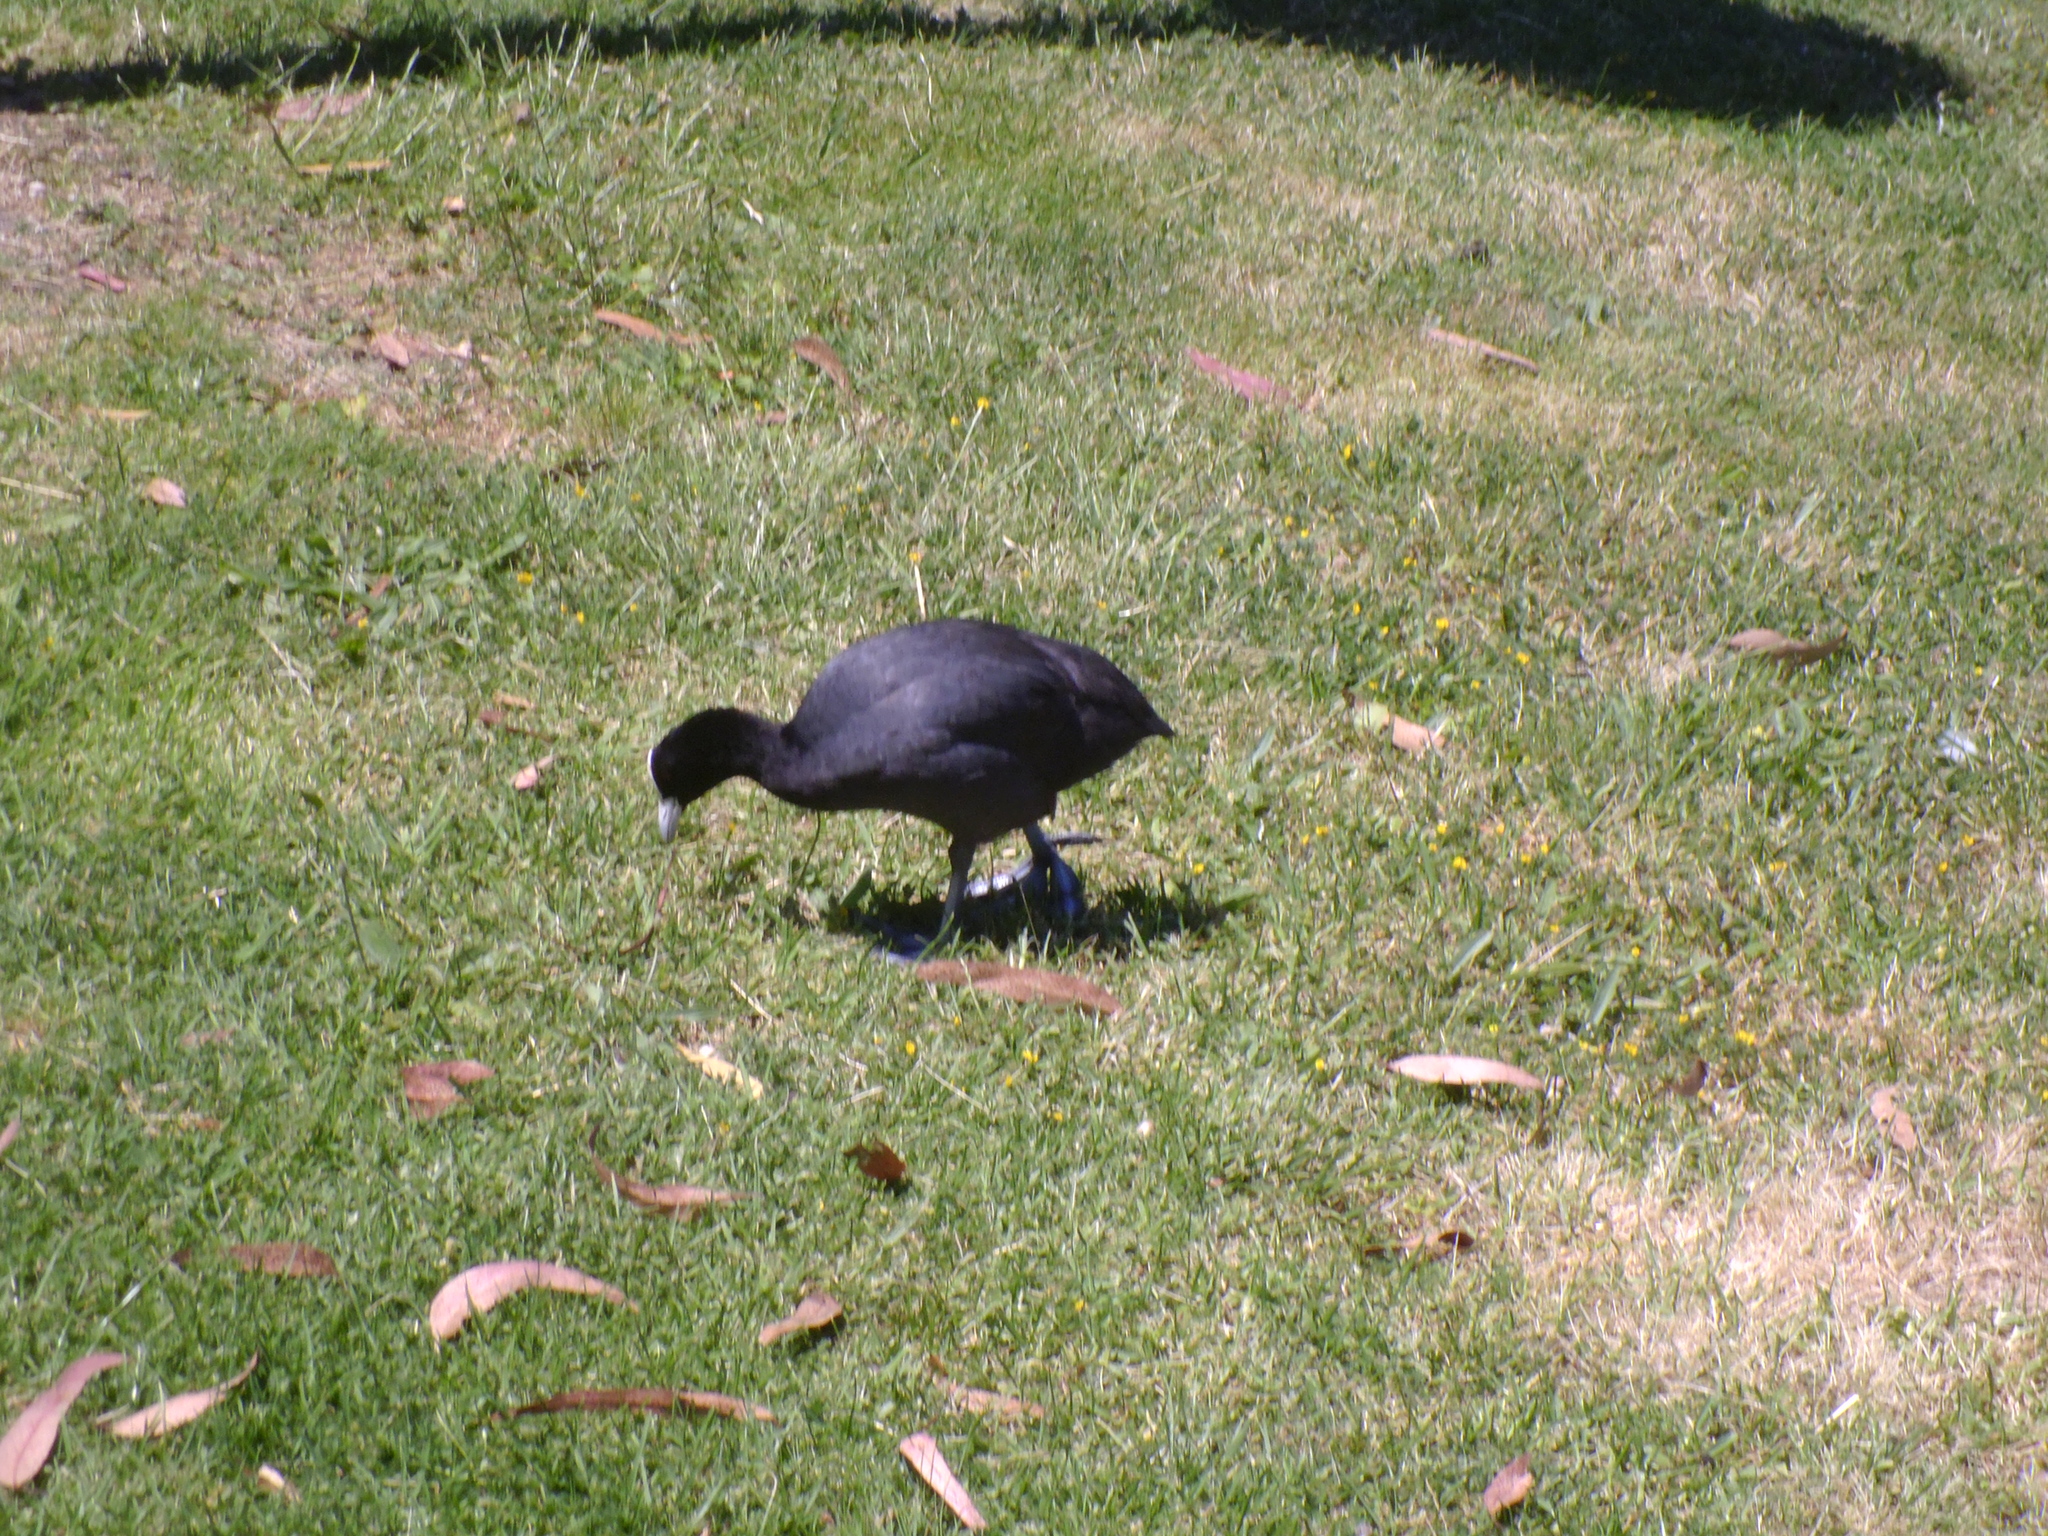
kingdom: Animalia
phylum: Chordata
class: Aves
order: Gruiformes
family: Rallidae
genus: Fulica
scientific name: Fulica atra
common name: Eurasian coot
